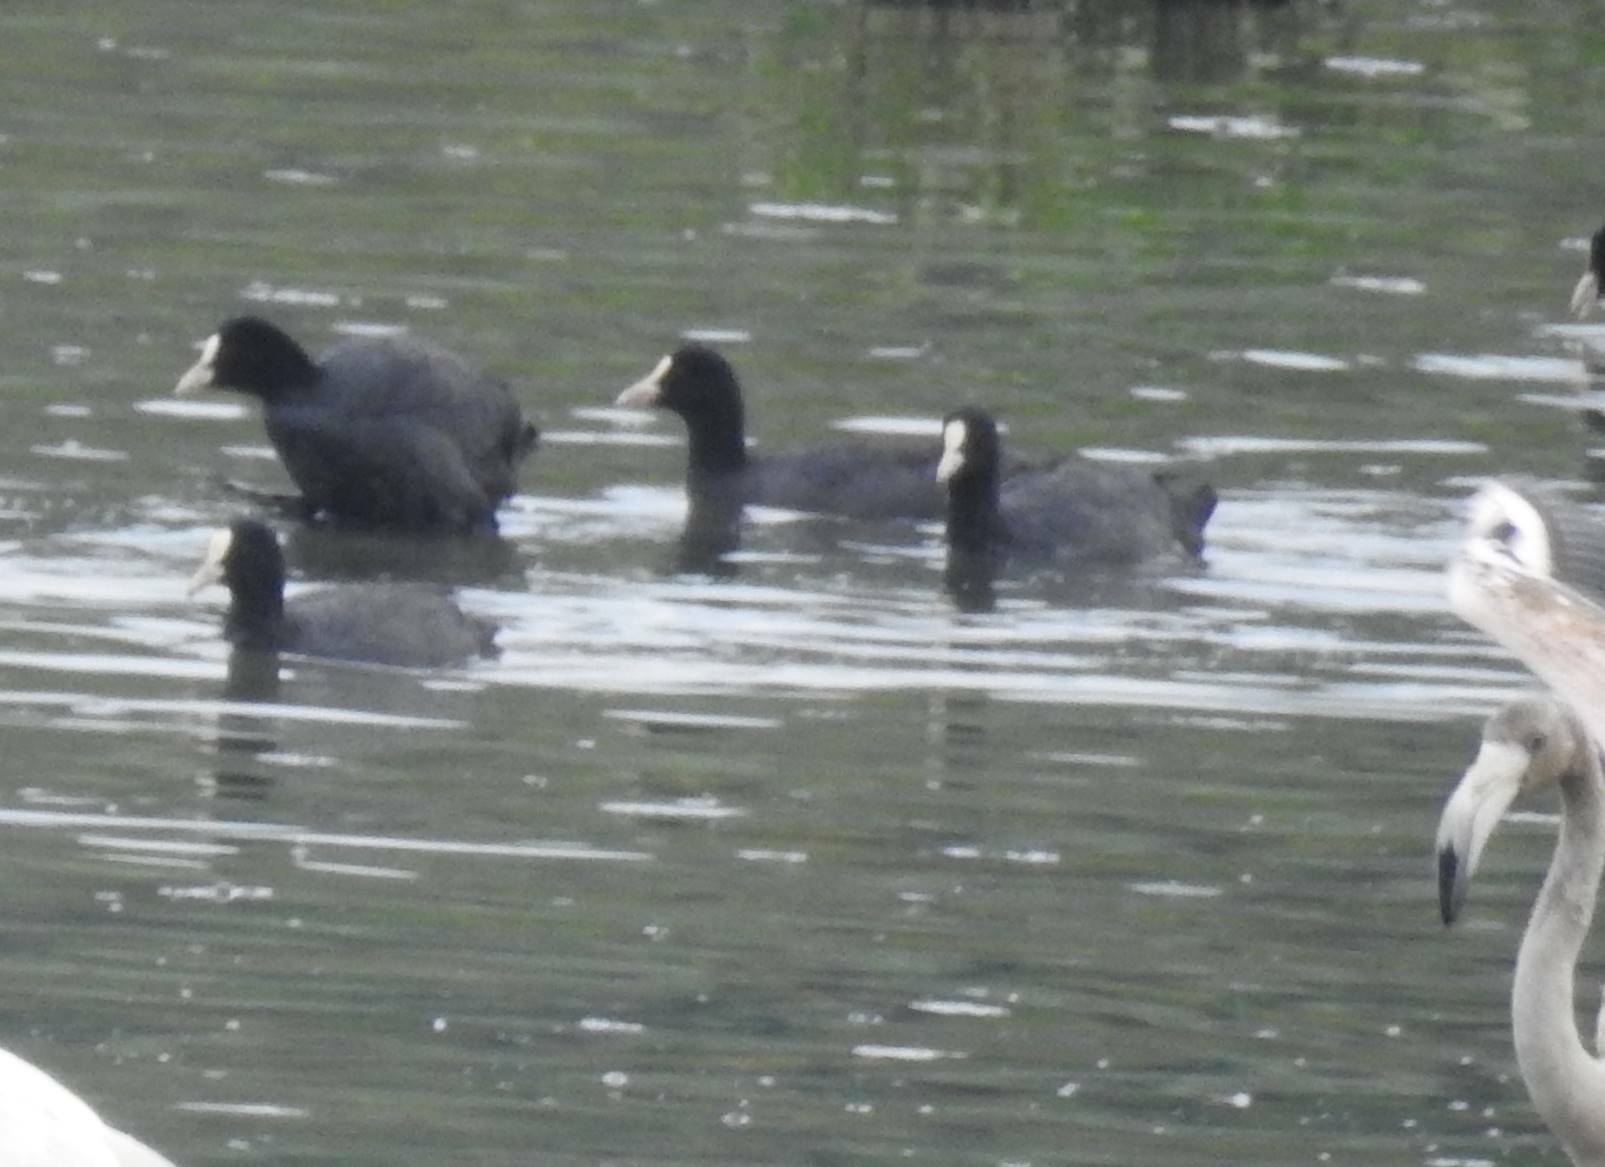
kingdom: Animalia
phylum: Chordata
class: Aves
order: Gruiformes
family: Rallidae
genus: Fulica
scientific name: Fulica atra
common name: Eurasian coot
